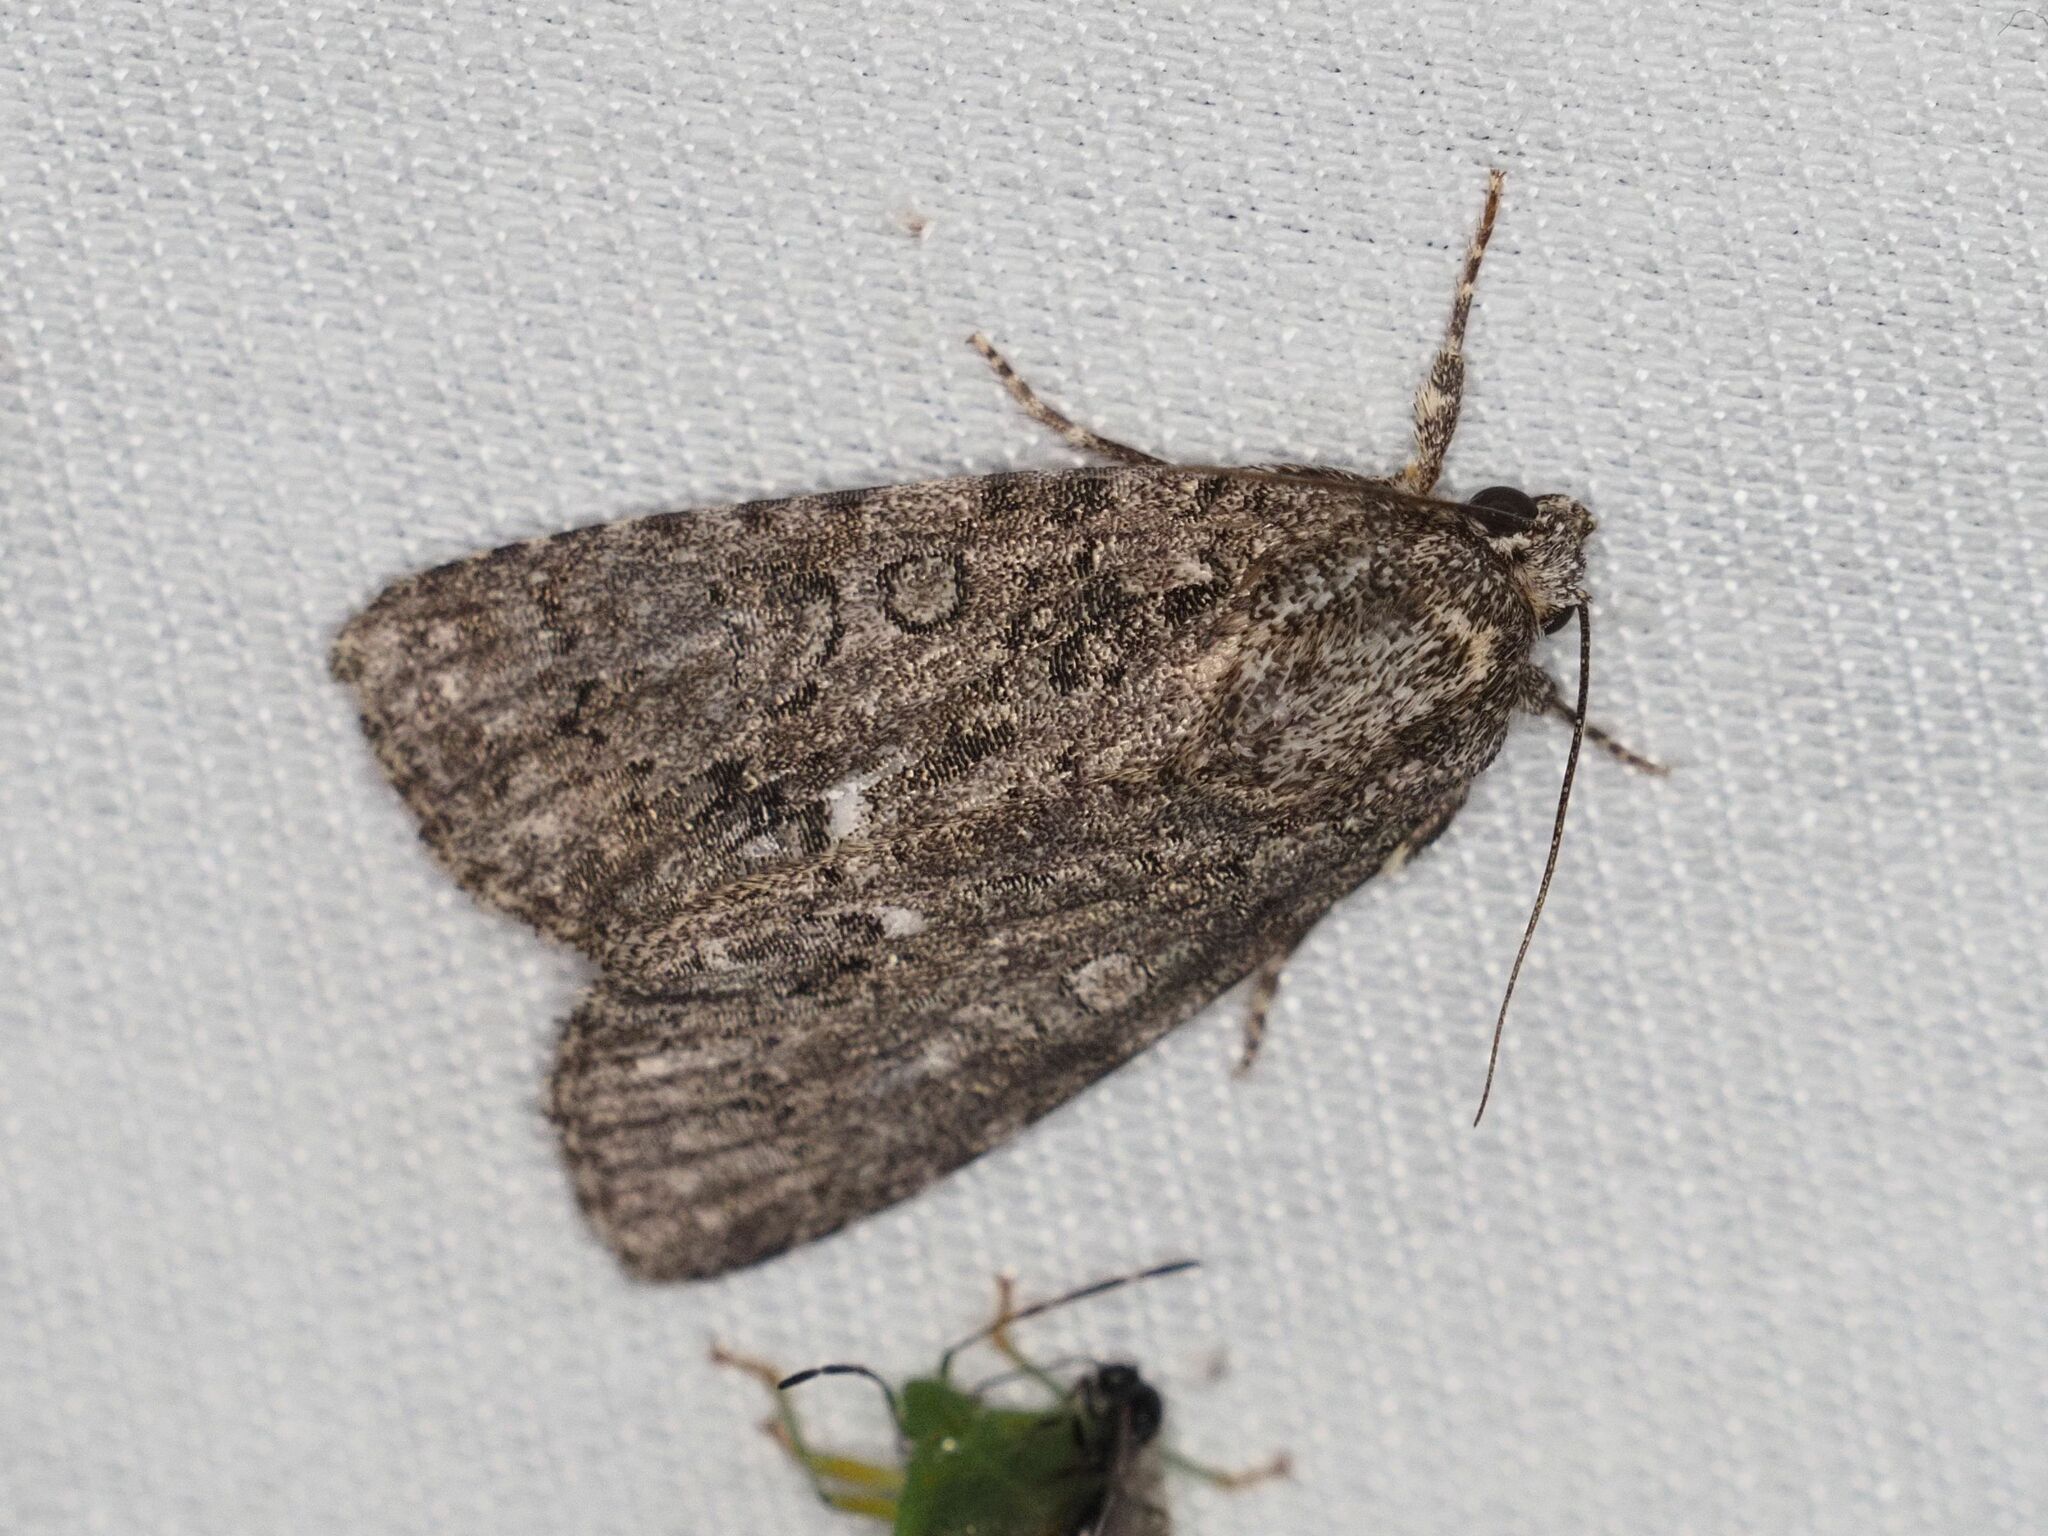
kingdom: Animalia
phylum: Arthropoda
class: Insecta
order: Lepidoptera
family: Noctuidae
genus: Acronicta
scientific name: Acronicta rumicis
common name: Knot grass
